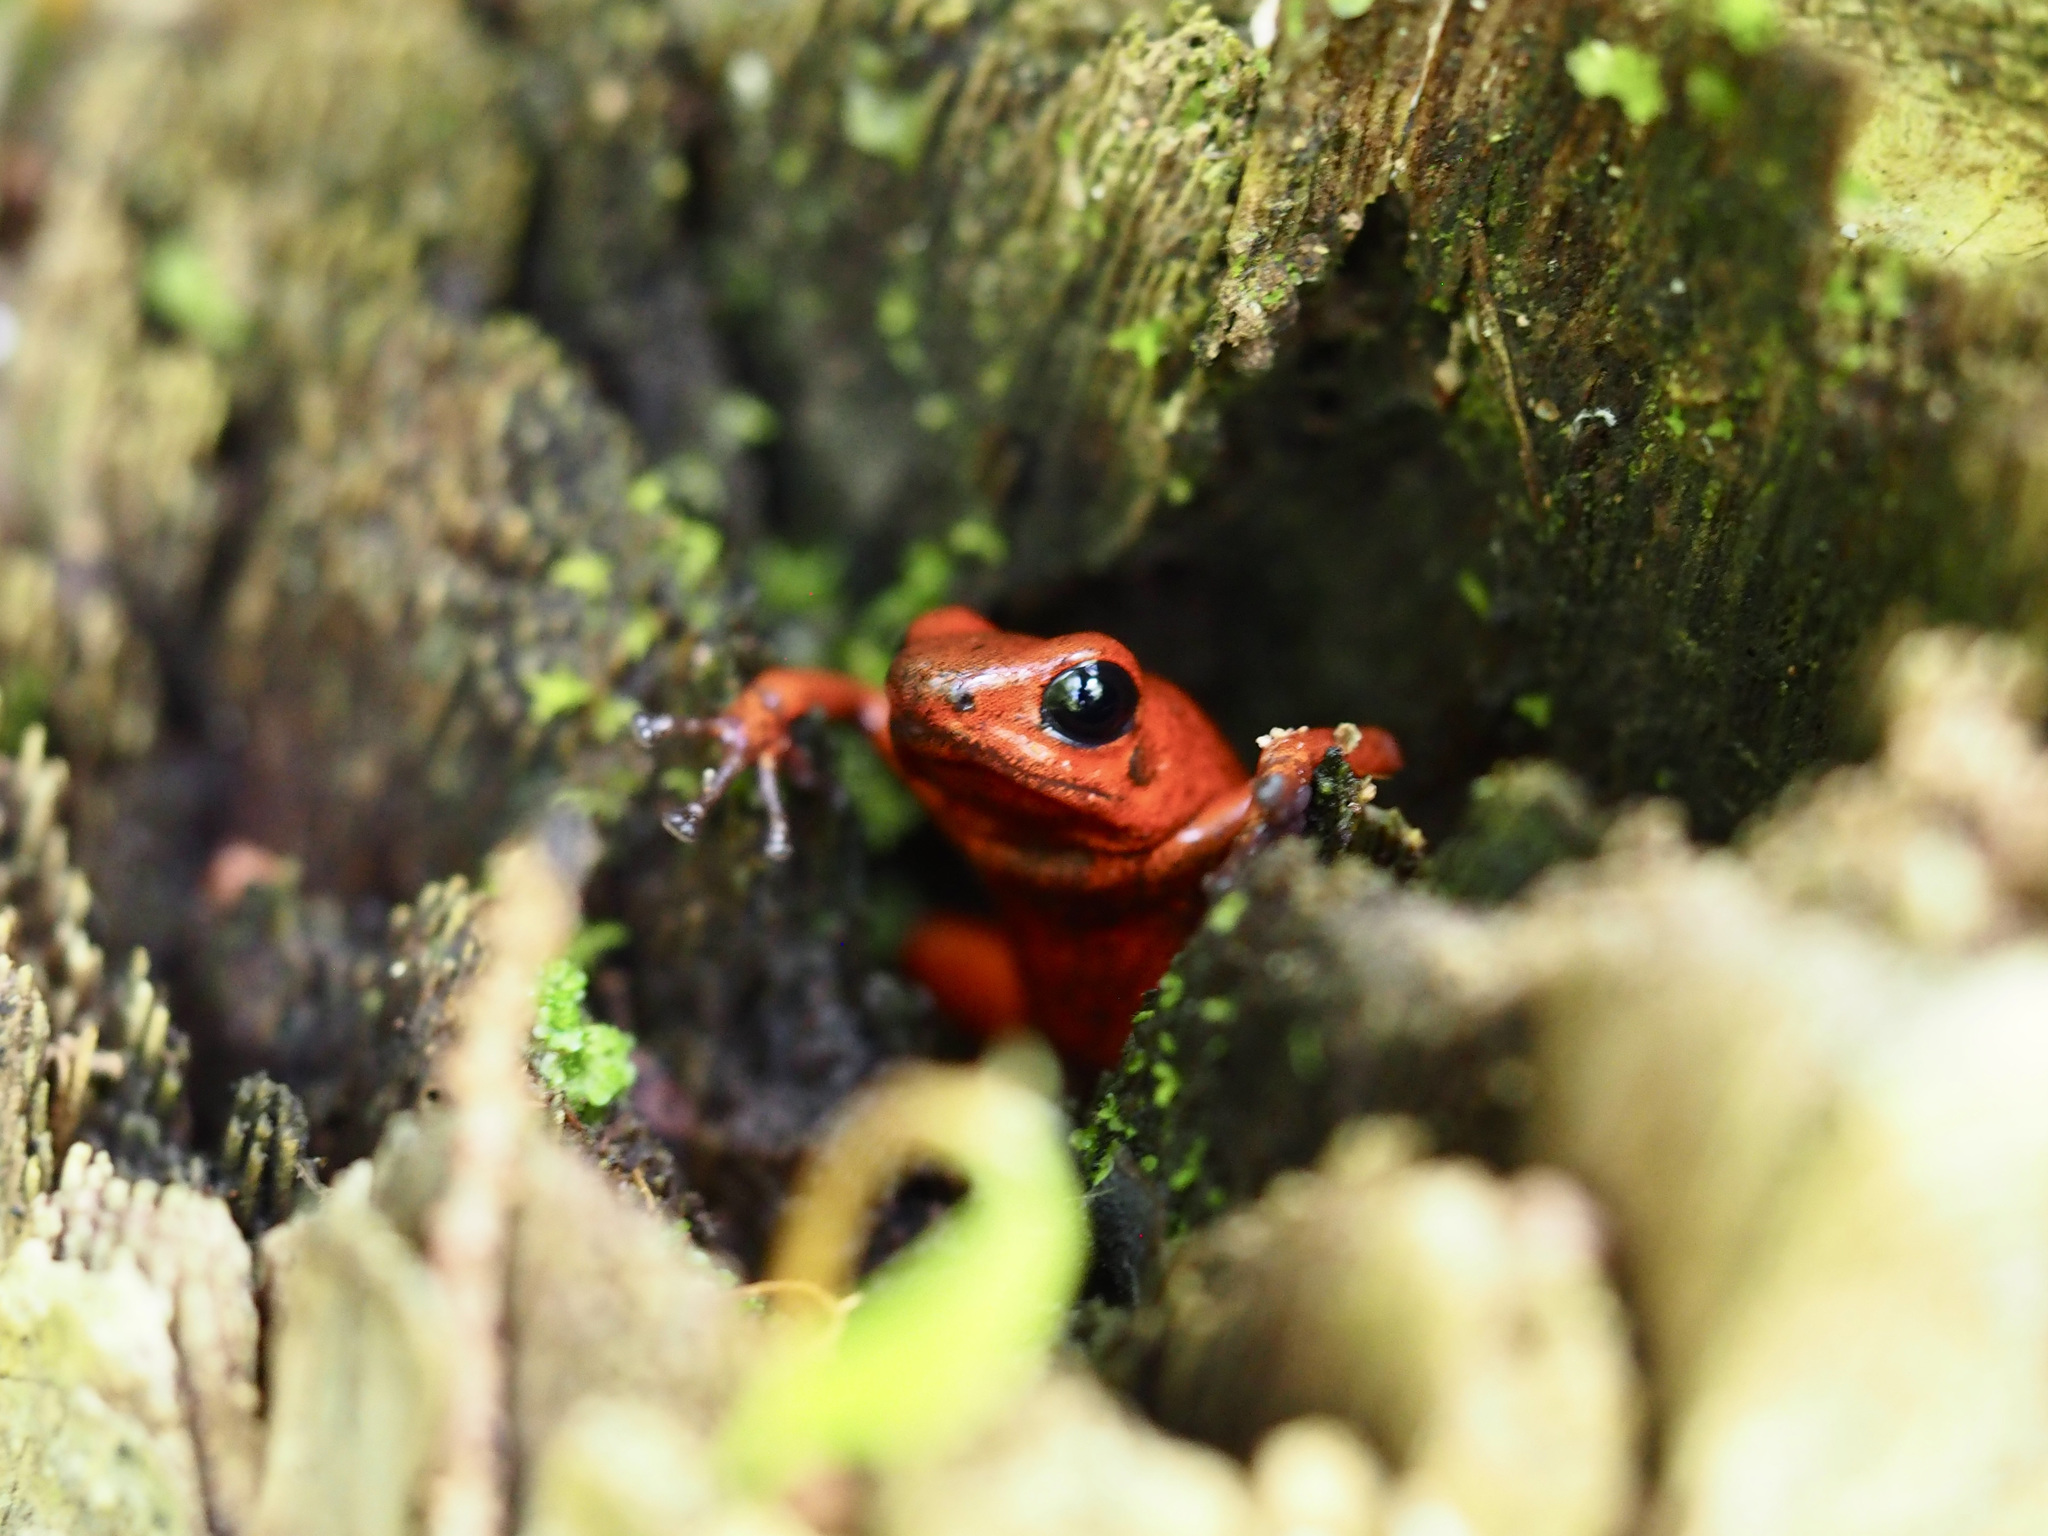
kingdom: Animalia
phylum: Chordata
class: Amphibia
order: Anura
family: Dendrobatidae
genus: Oophaga
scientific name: Oophaga pumilio
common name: Flaming poison frog
